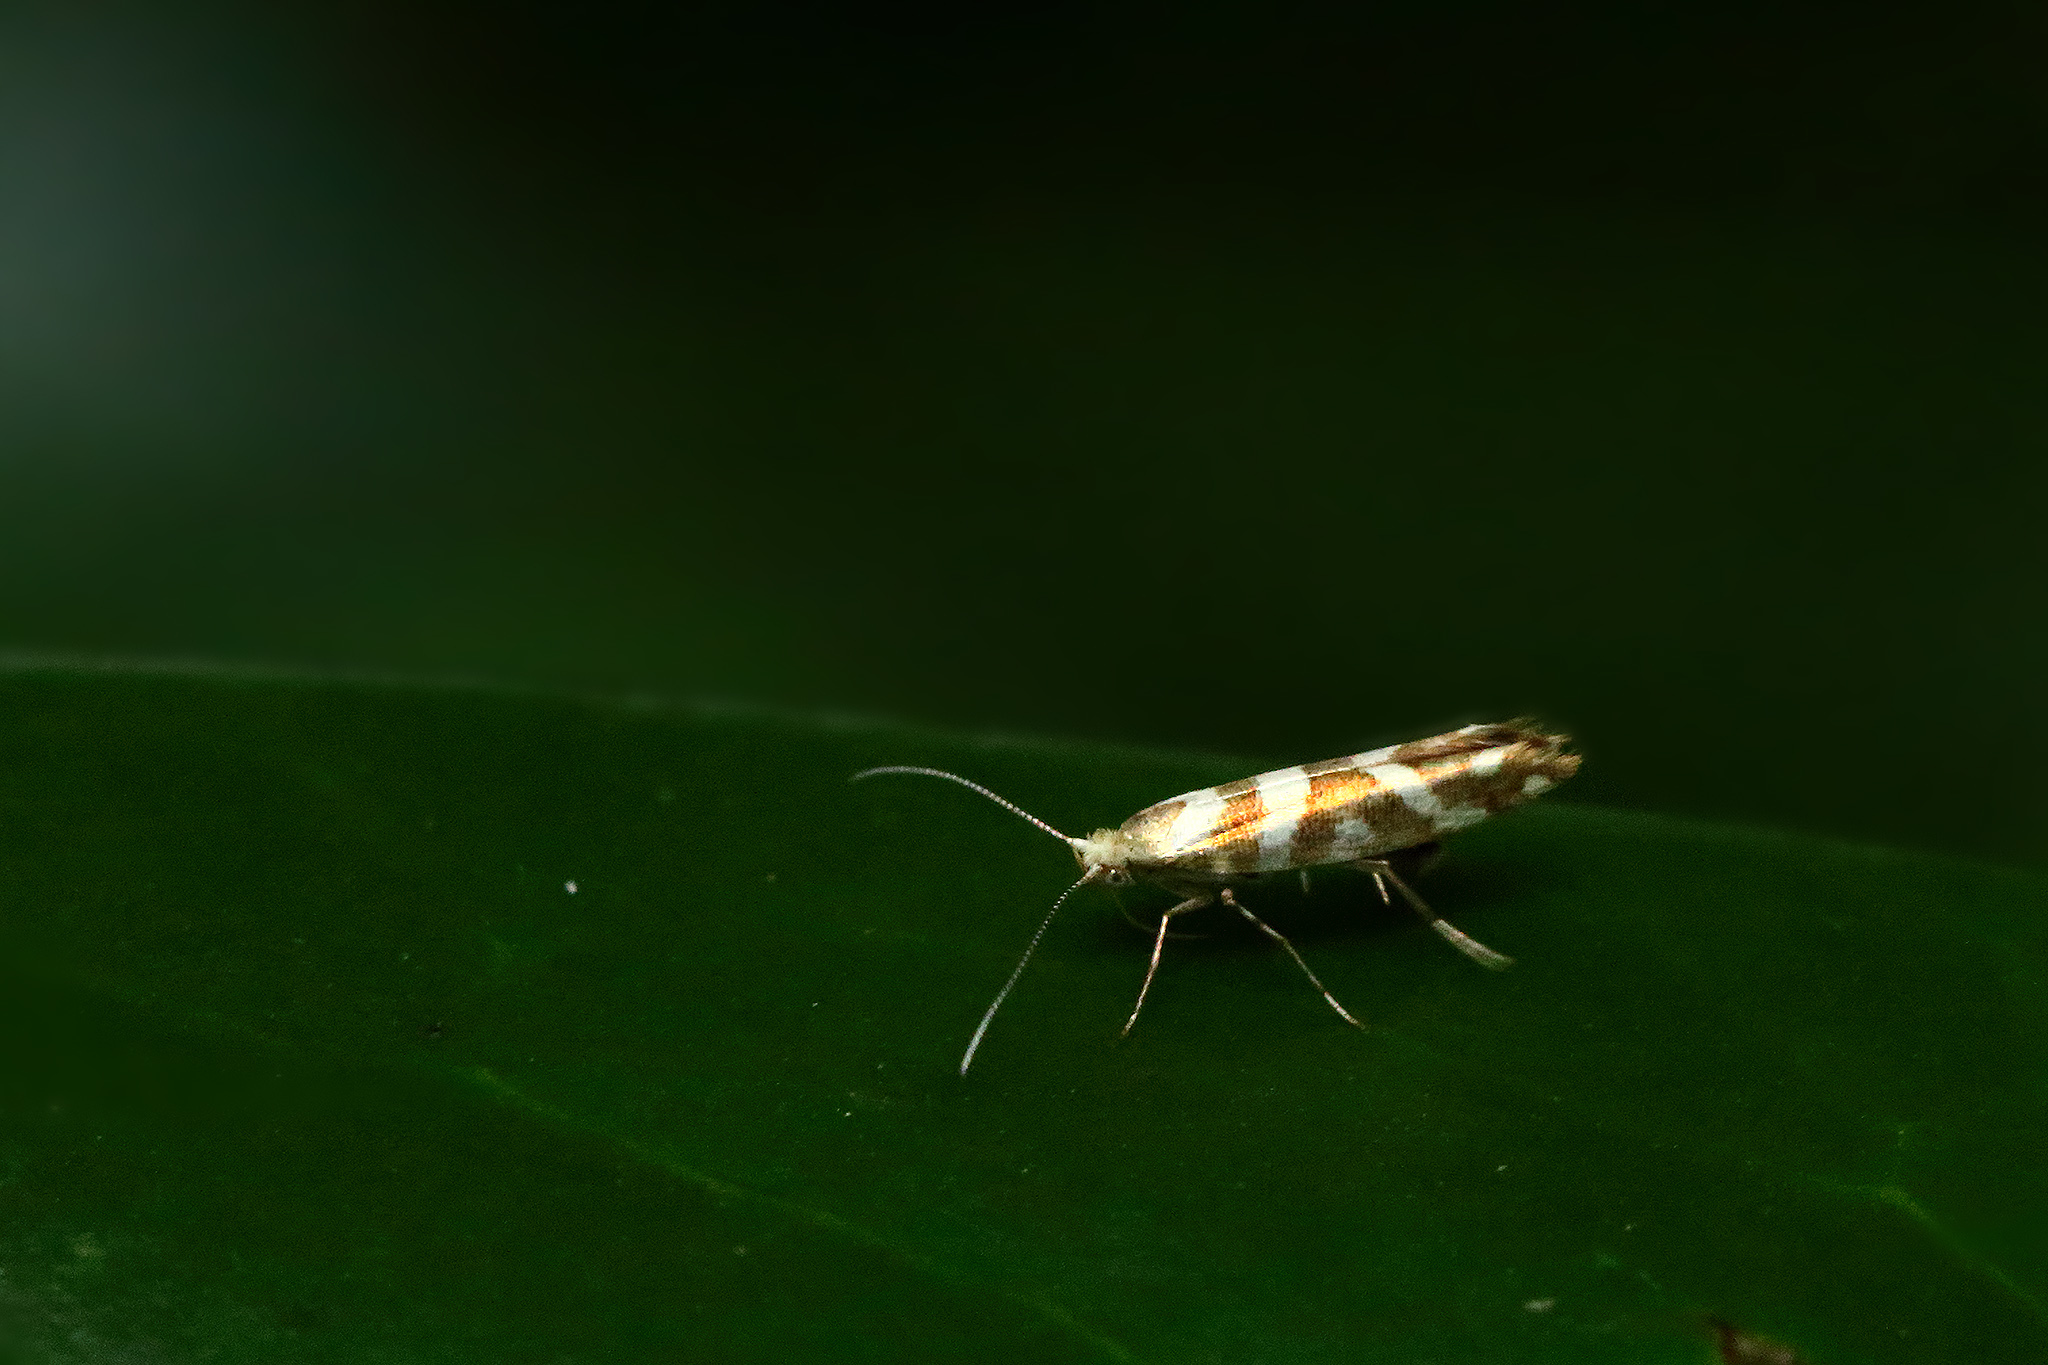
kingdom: Animalia
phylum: Arthropoda
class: Insecta
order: Lepidoptera
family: Argyresthiidae
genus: Argyresthia
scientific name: Argyresthia goedartella
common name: Golden argent
